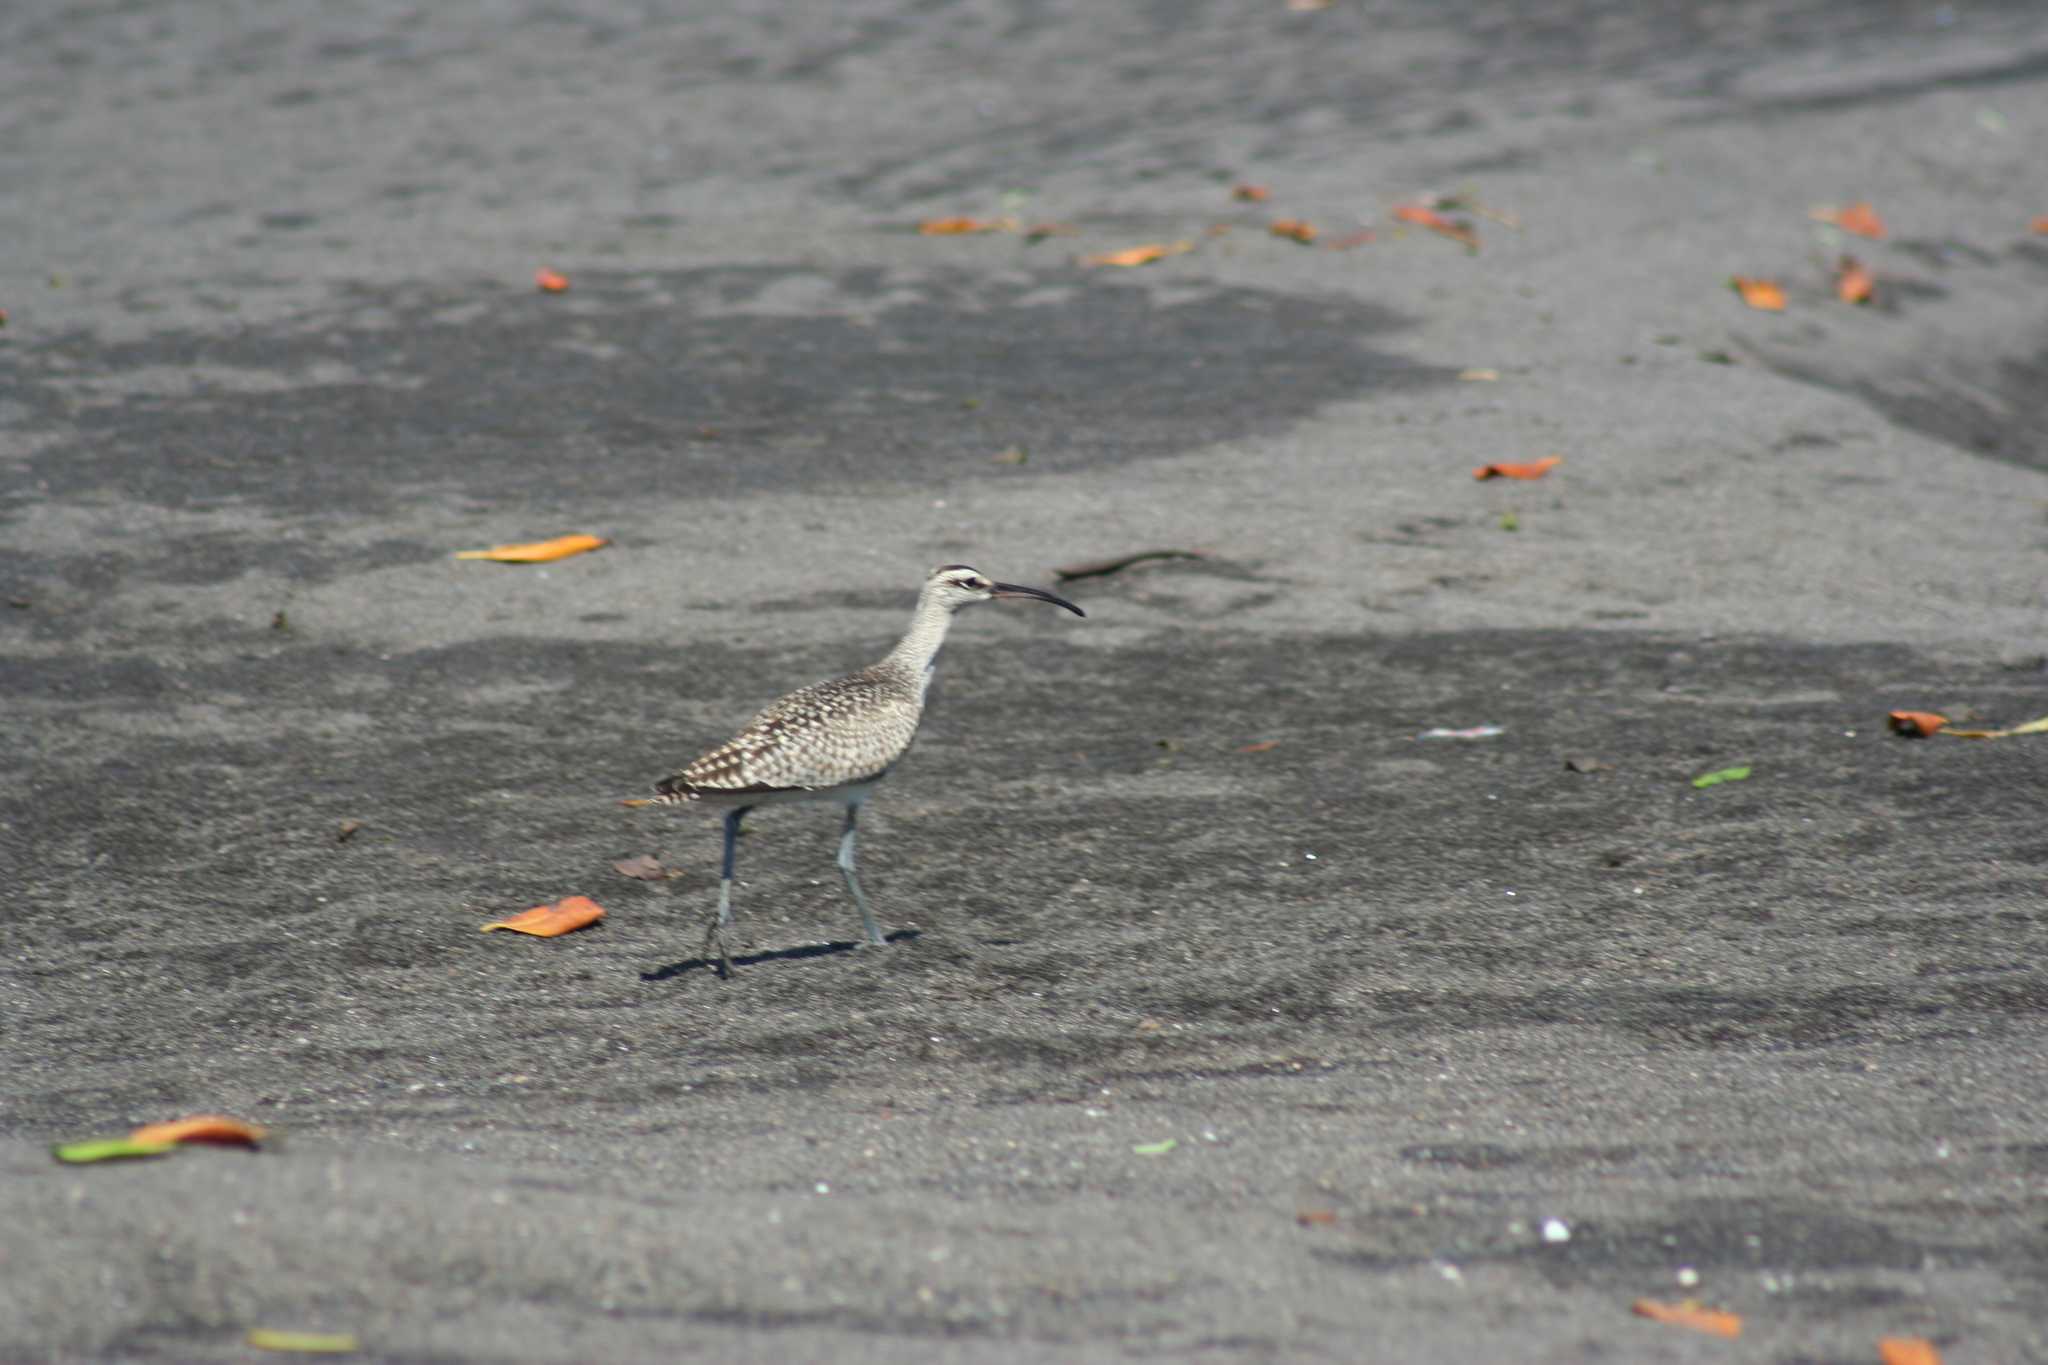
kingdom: Animalia
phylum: Chordata
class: Aves
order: Charadriiformes
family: Scolopacidae
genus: Numenius
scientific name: Numenius phaeopus
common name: Whimbrel
